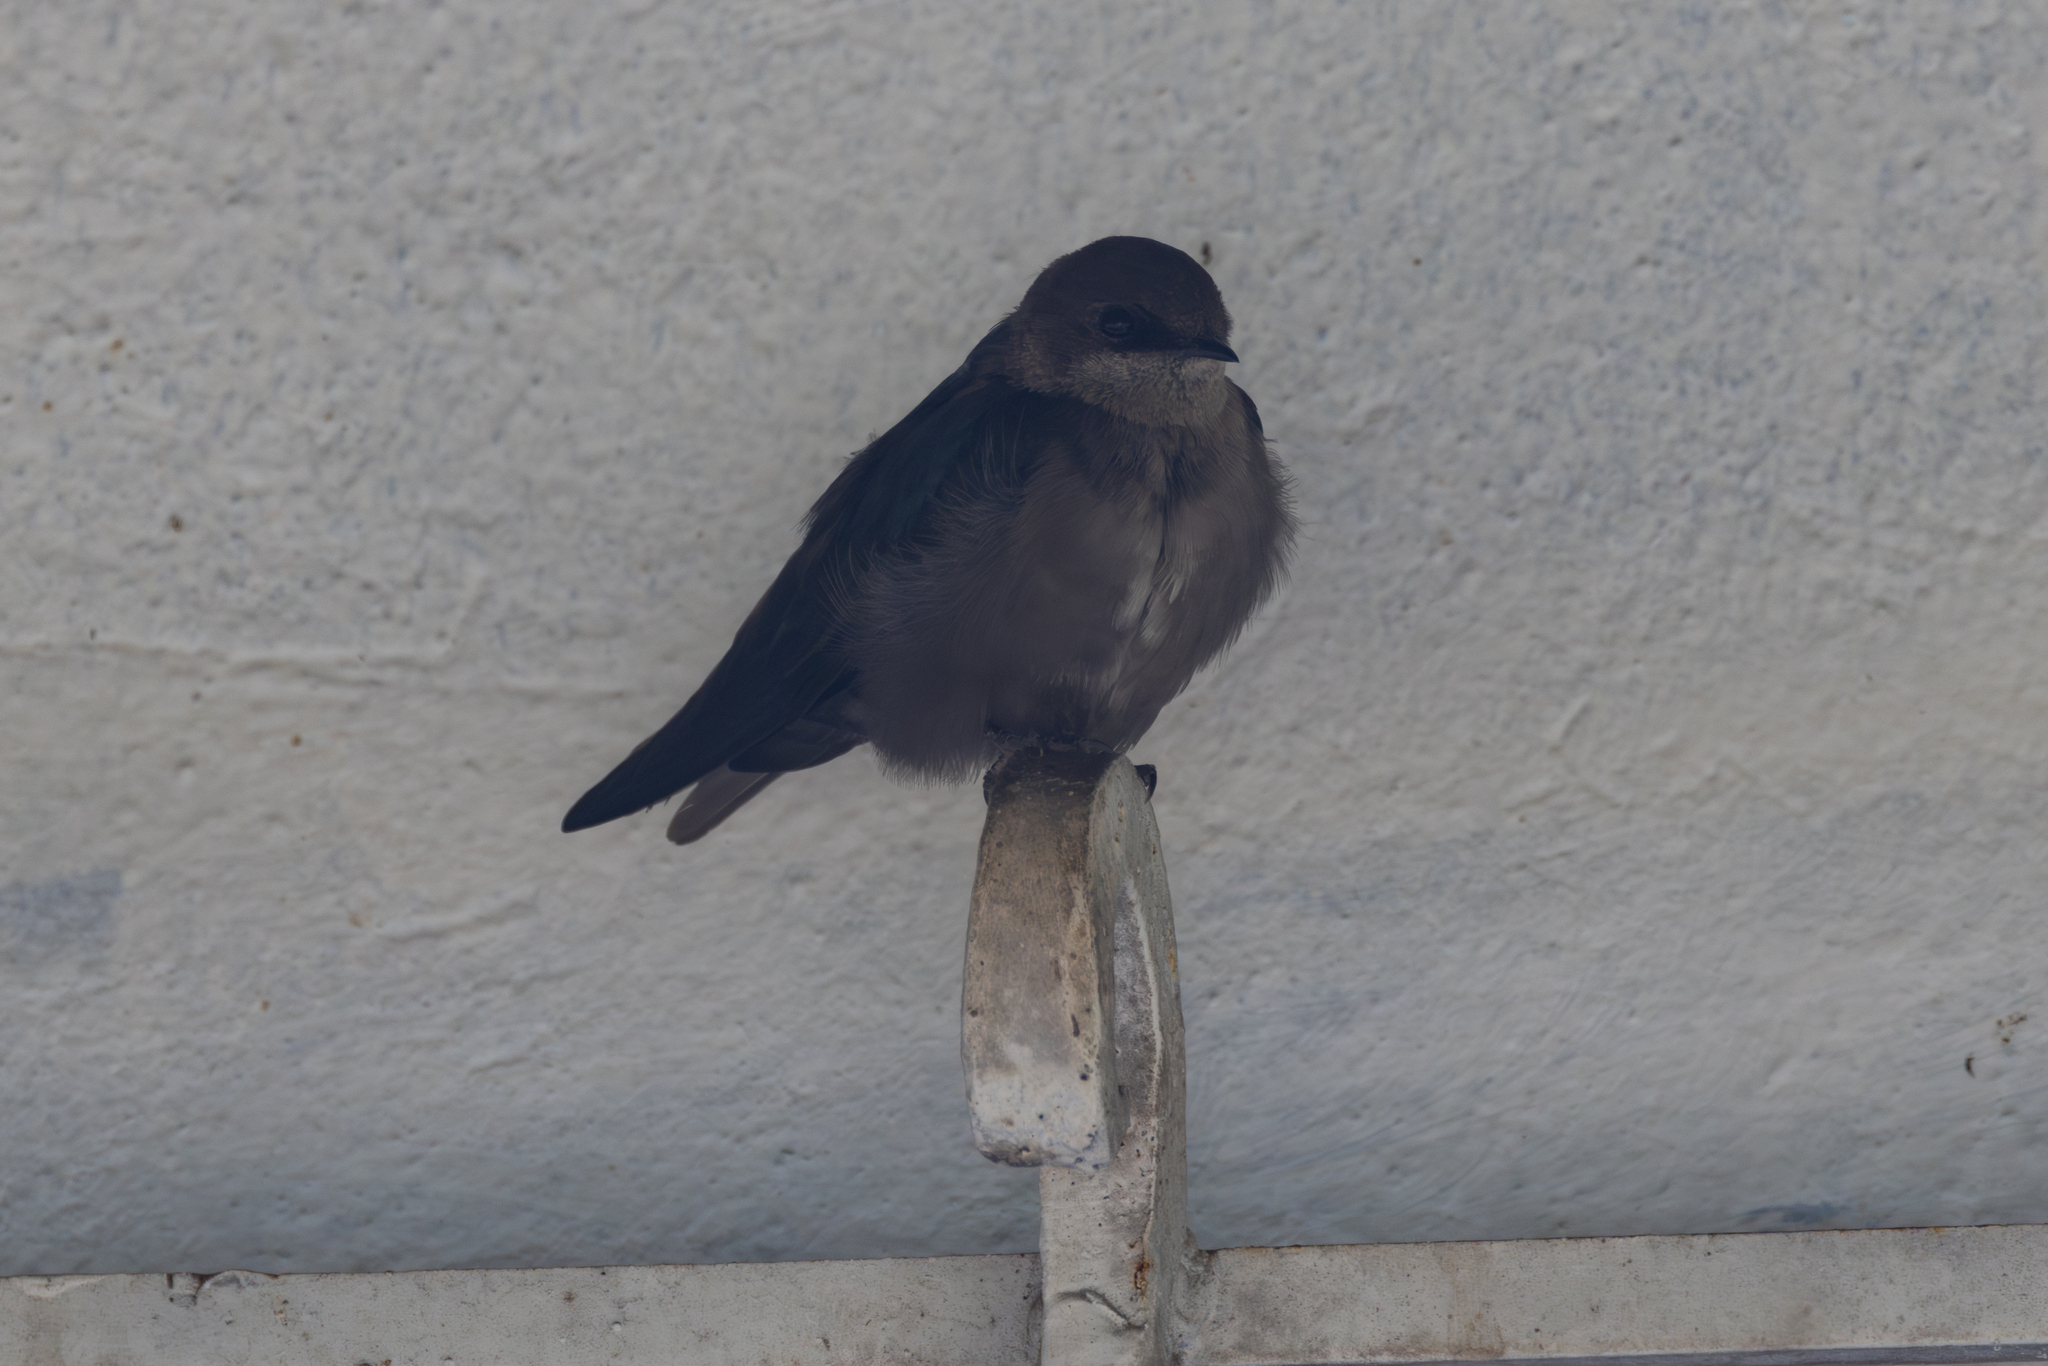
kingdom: Animalia
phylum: Chordata
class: Aves
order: Passeriformes
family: Hirundinidae
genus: Notiochelidon
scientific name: Notiochelidon murina
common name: Brown-bellied swallow
